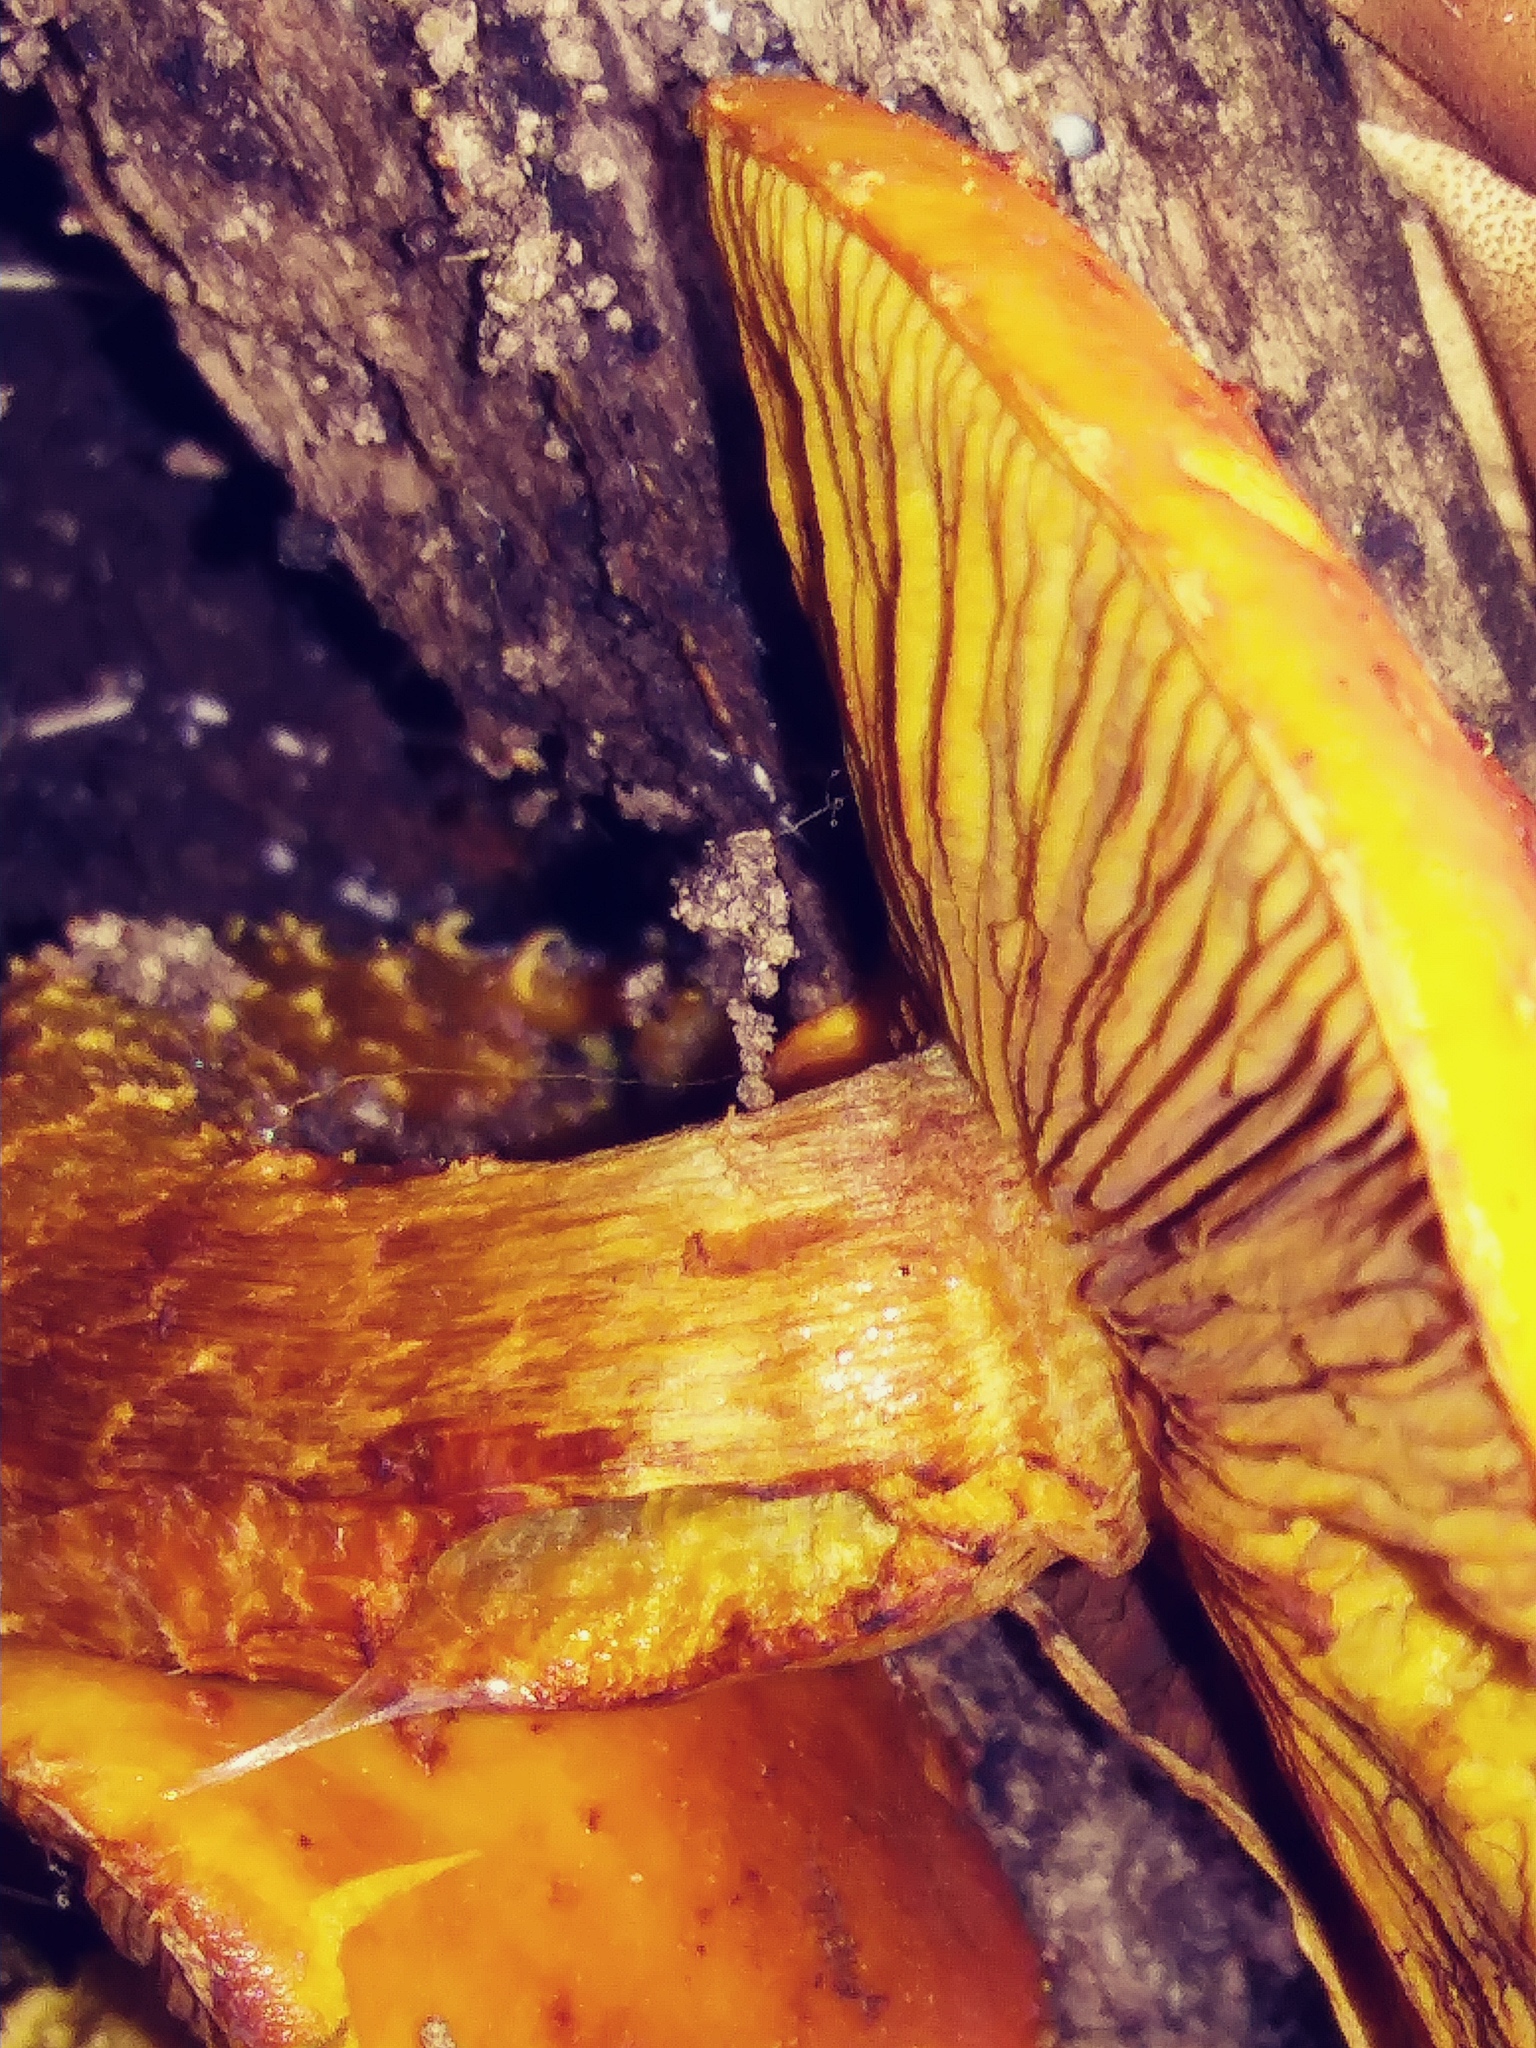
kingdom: Fungi
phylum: Basidiomycota
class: Agaricomycetes
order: Agaricales
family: Strophariaceae
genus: Pholiota
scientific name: Pholiota aurivella
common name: Golden scalycap
